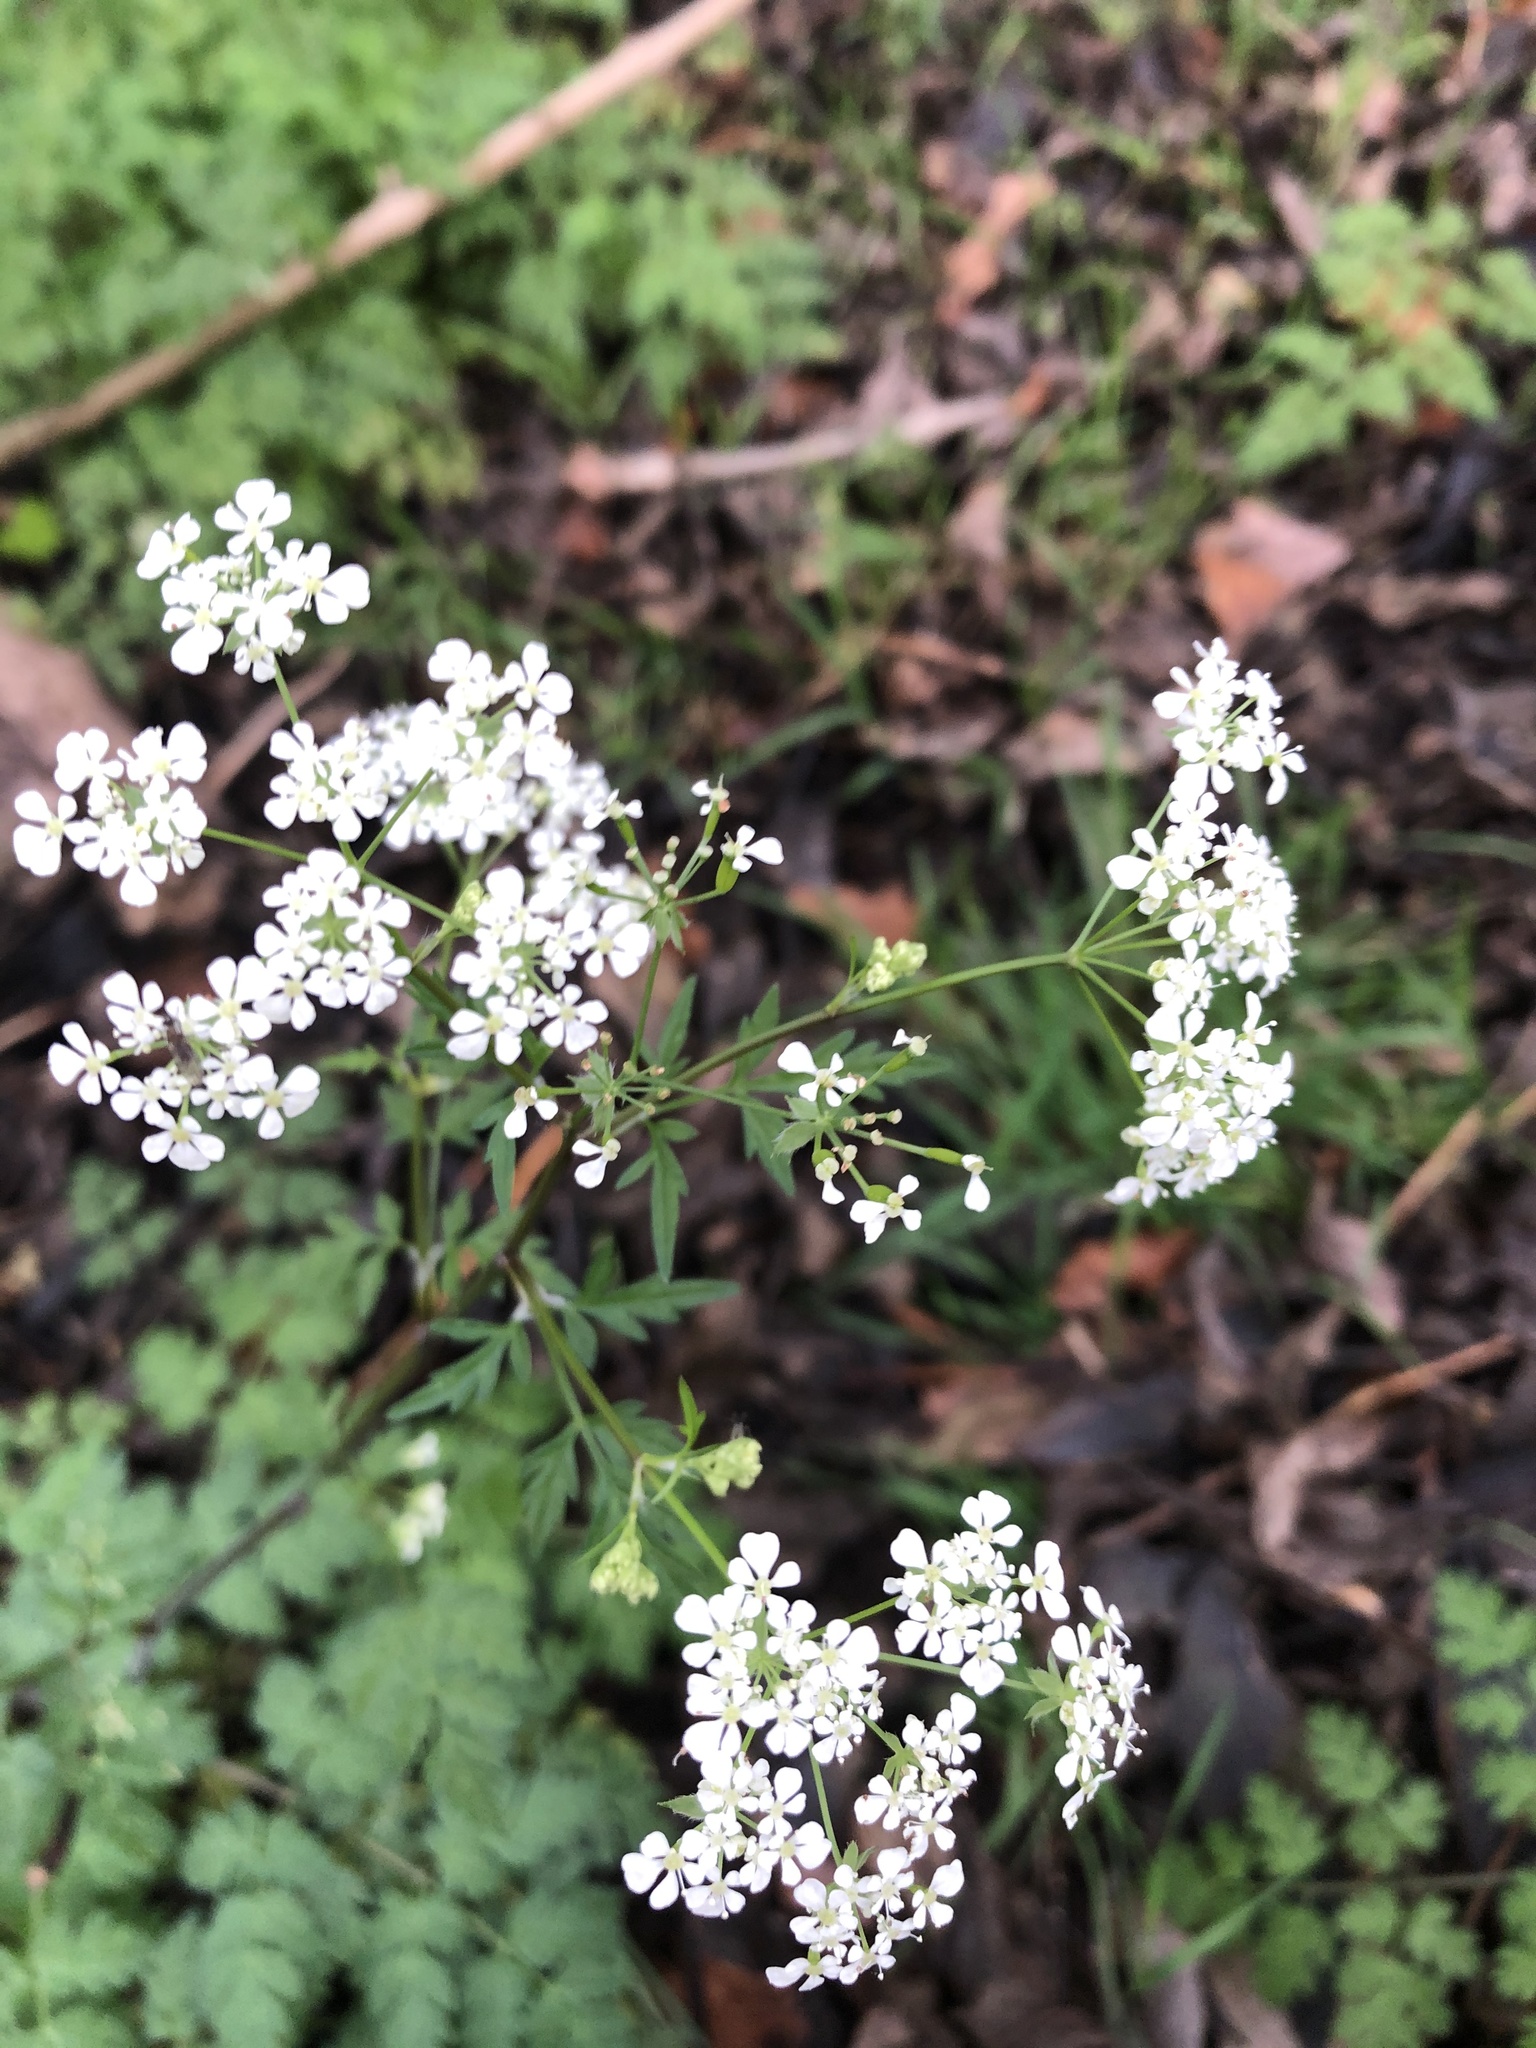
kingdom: Plantae
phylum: Tracheophyta
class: Magnoliopsida
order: Apiales
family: Apiaceae
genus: Anthriscus
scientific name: Anthriscus sylvestris
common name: Cow parsley
